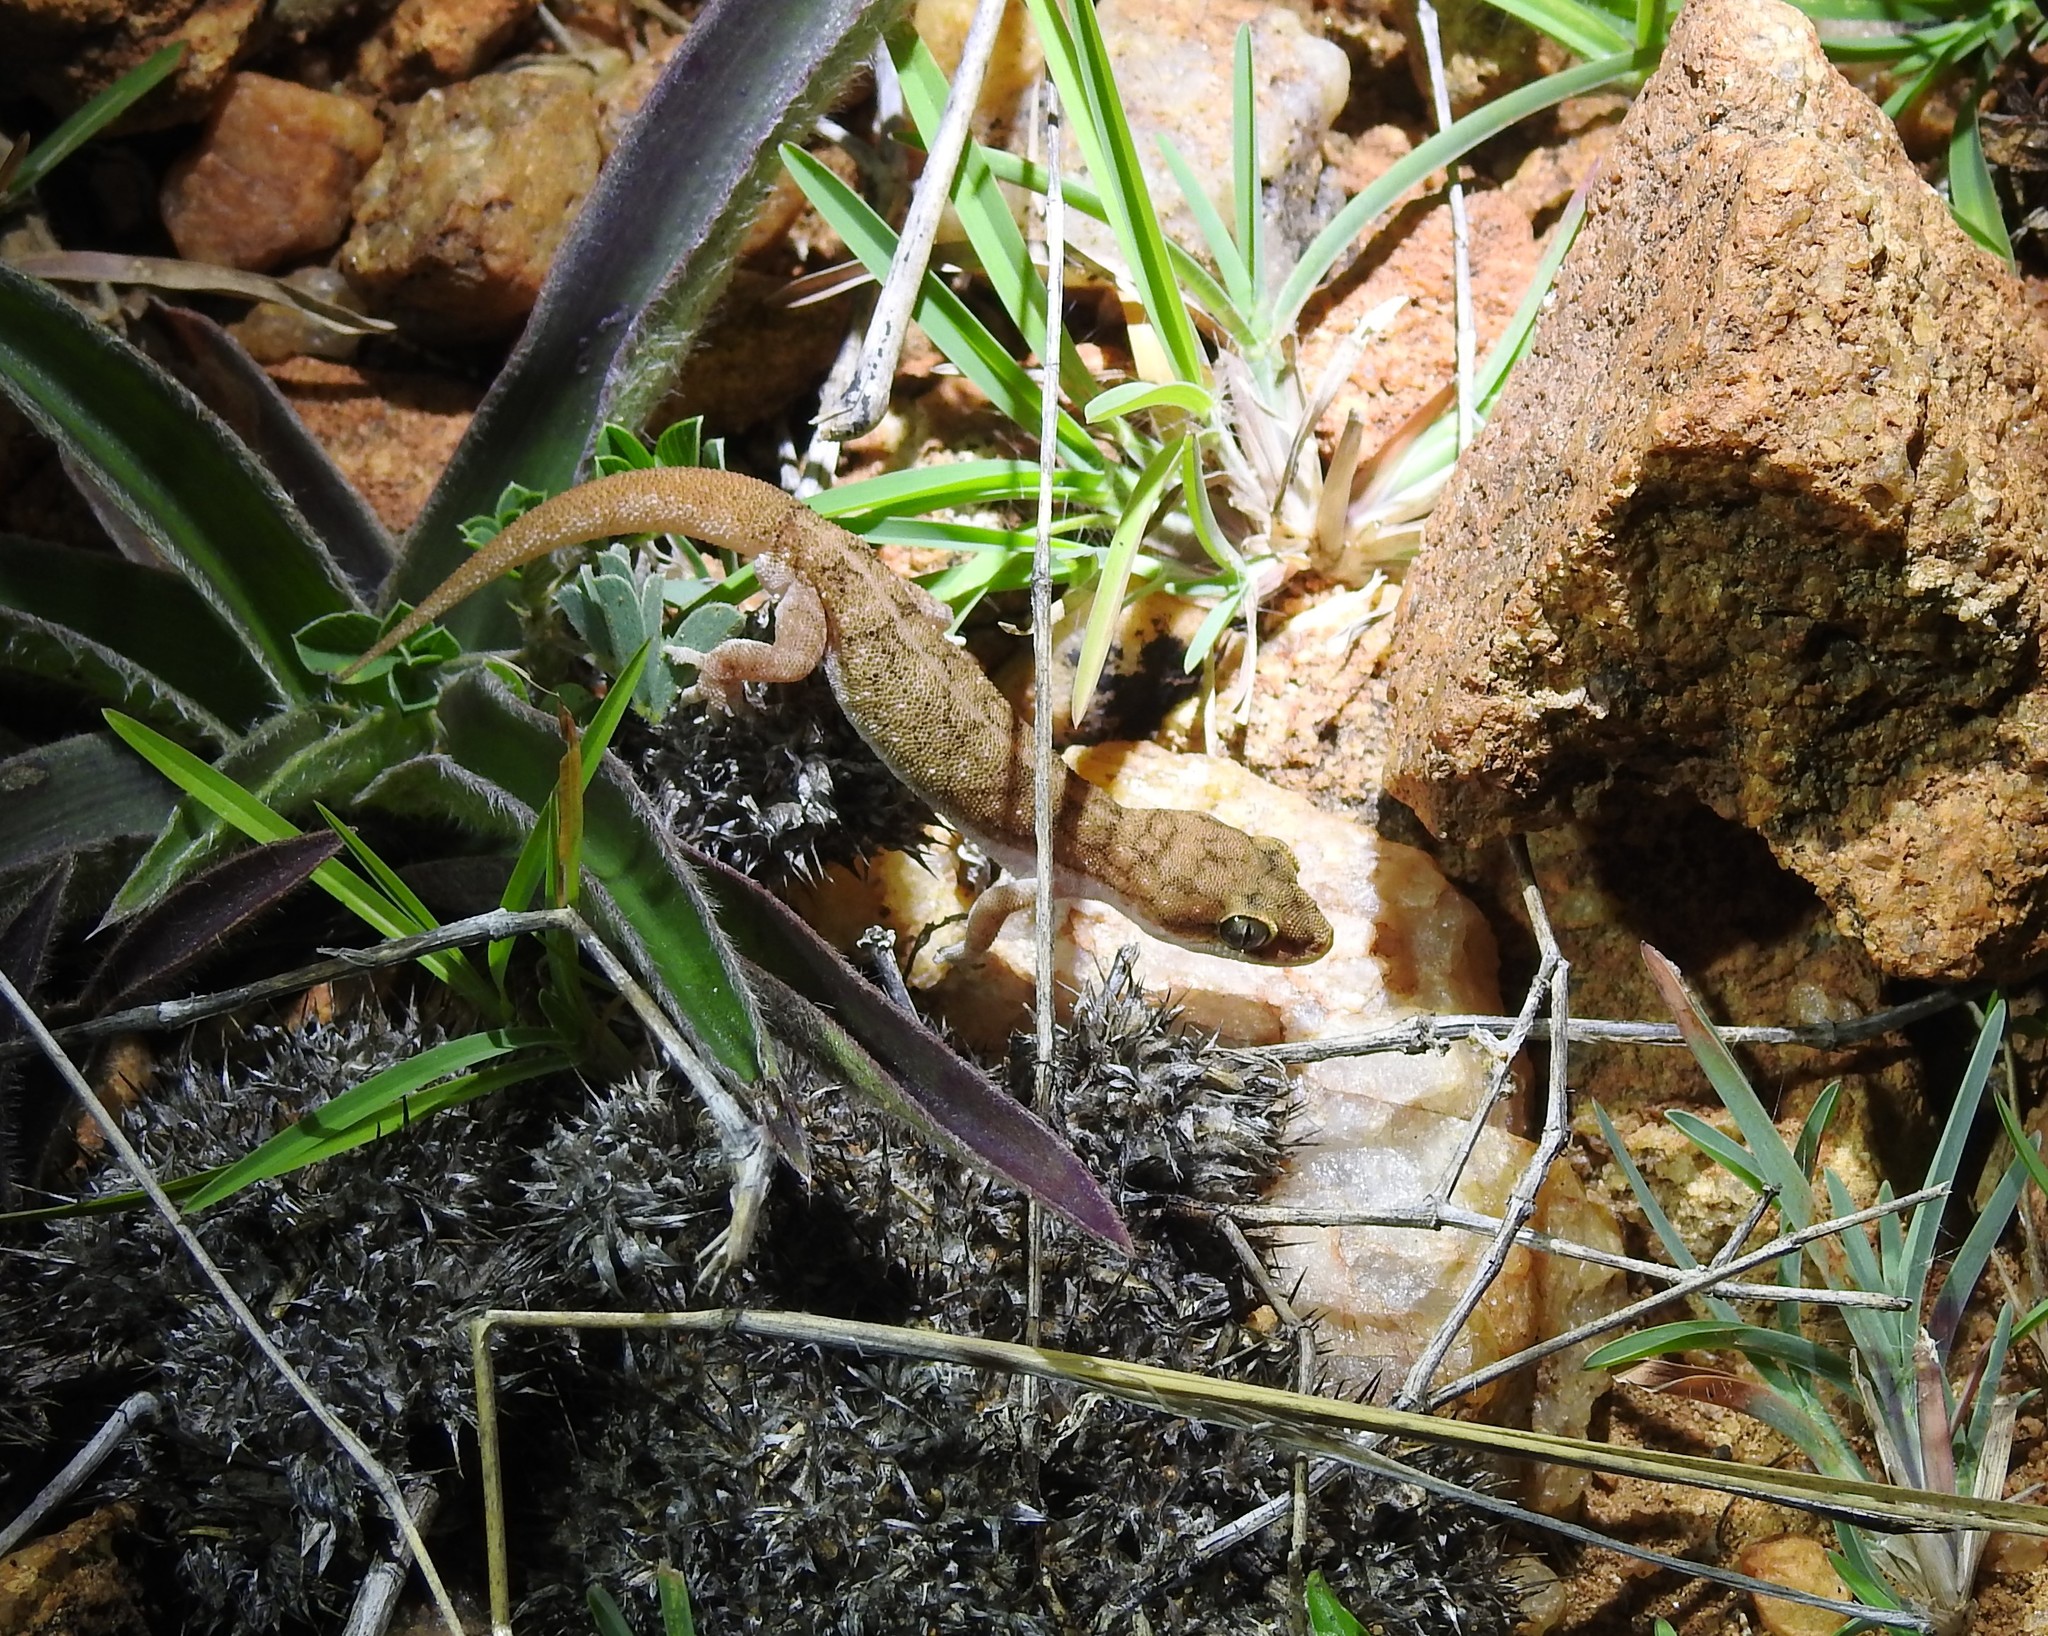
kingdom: Animalia
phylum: Chordata
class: Squamata
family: Gekkonidae
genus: Hemidactylus
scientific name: Hemidactylus reticulatus
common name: Reticulate leaf-toed gecko
